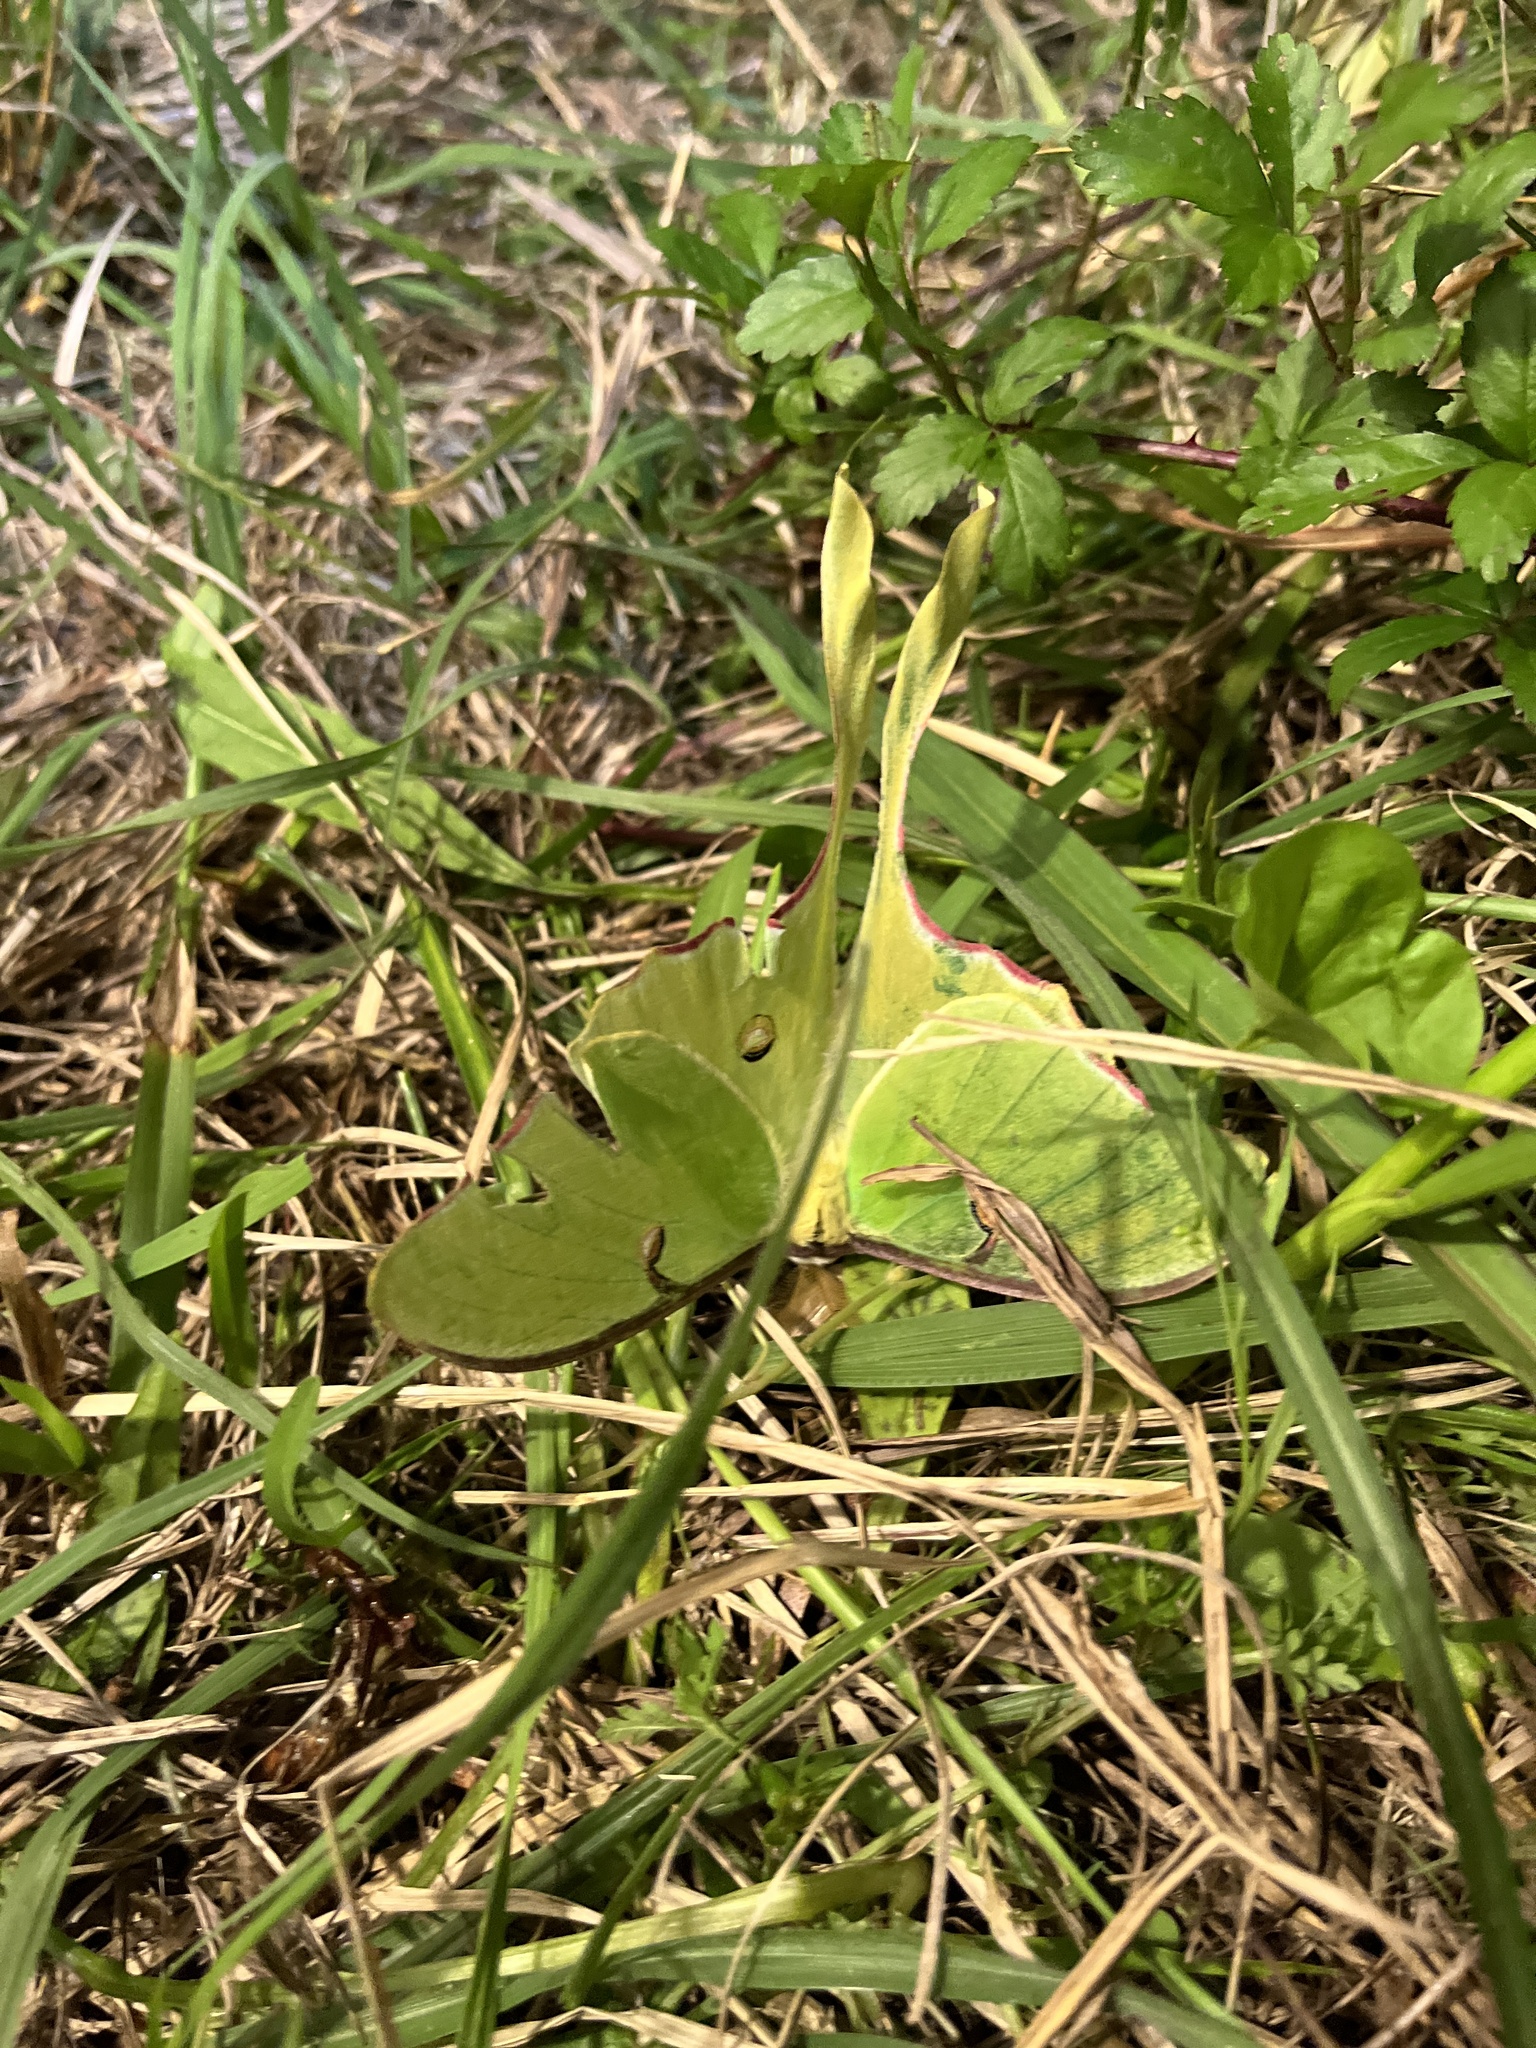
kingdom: Animalia
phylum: Arthropoda
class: Insecta
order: Lepidoptera
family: Saturniidae
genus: Actias
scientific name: Actias luna
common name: Luna moth
